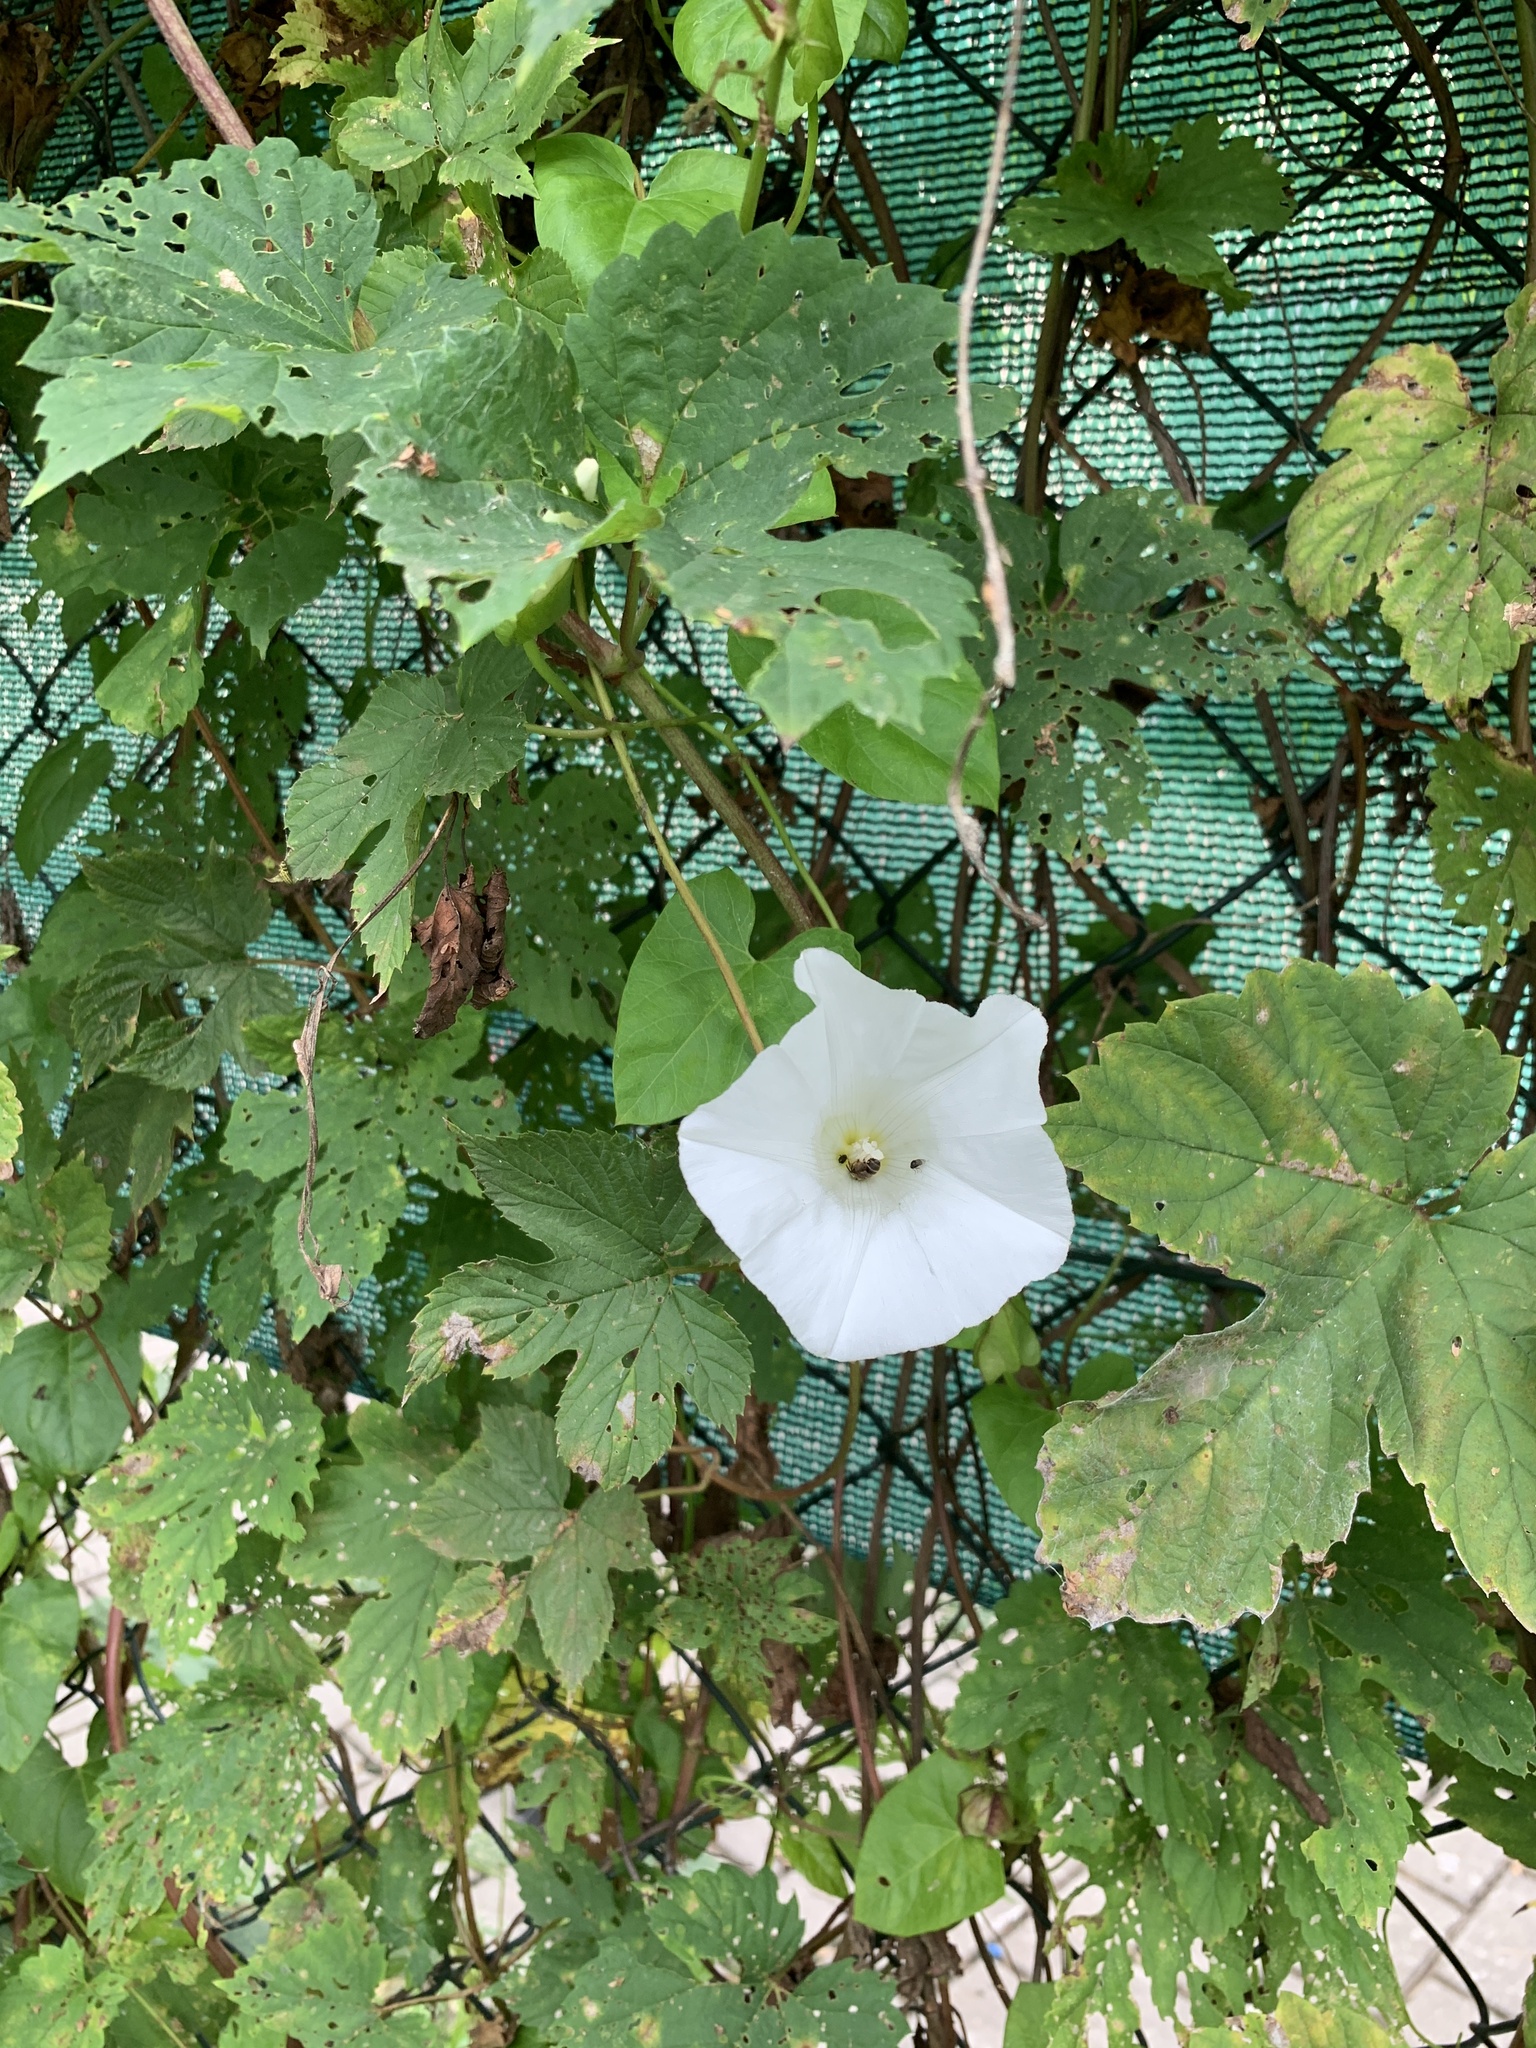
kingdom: Plantae
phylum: Tracheophyta
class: Magnoliopsida
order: Solanales
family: Convolvulaceae
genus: Calystegia
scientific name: Calystegia sepium
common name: Hedge bindweed
